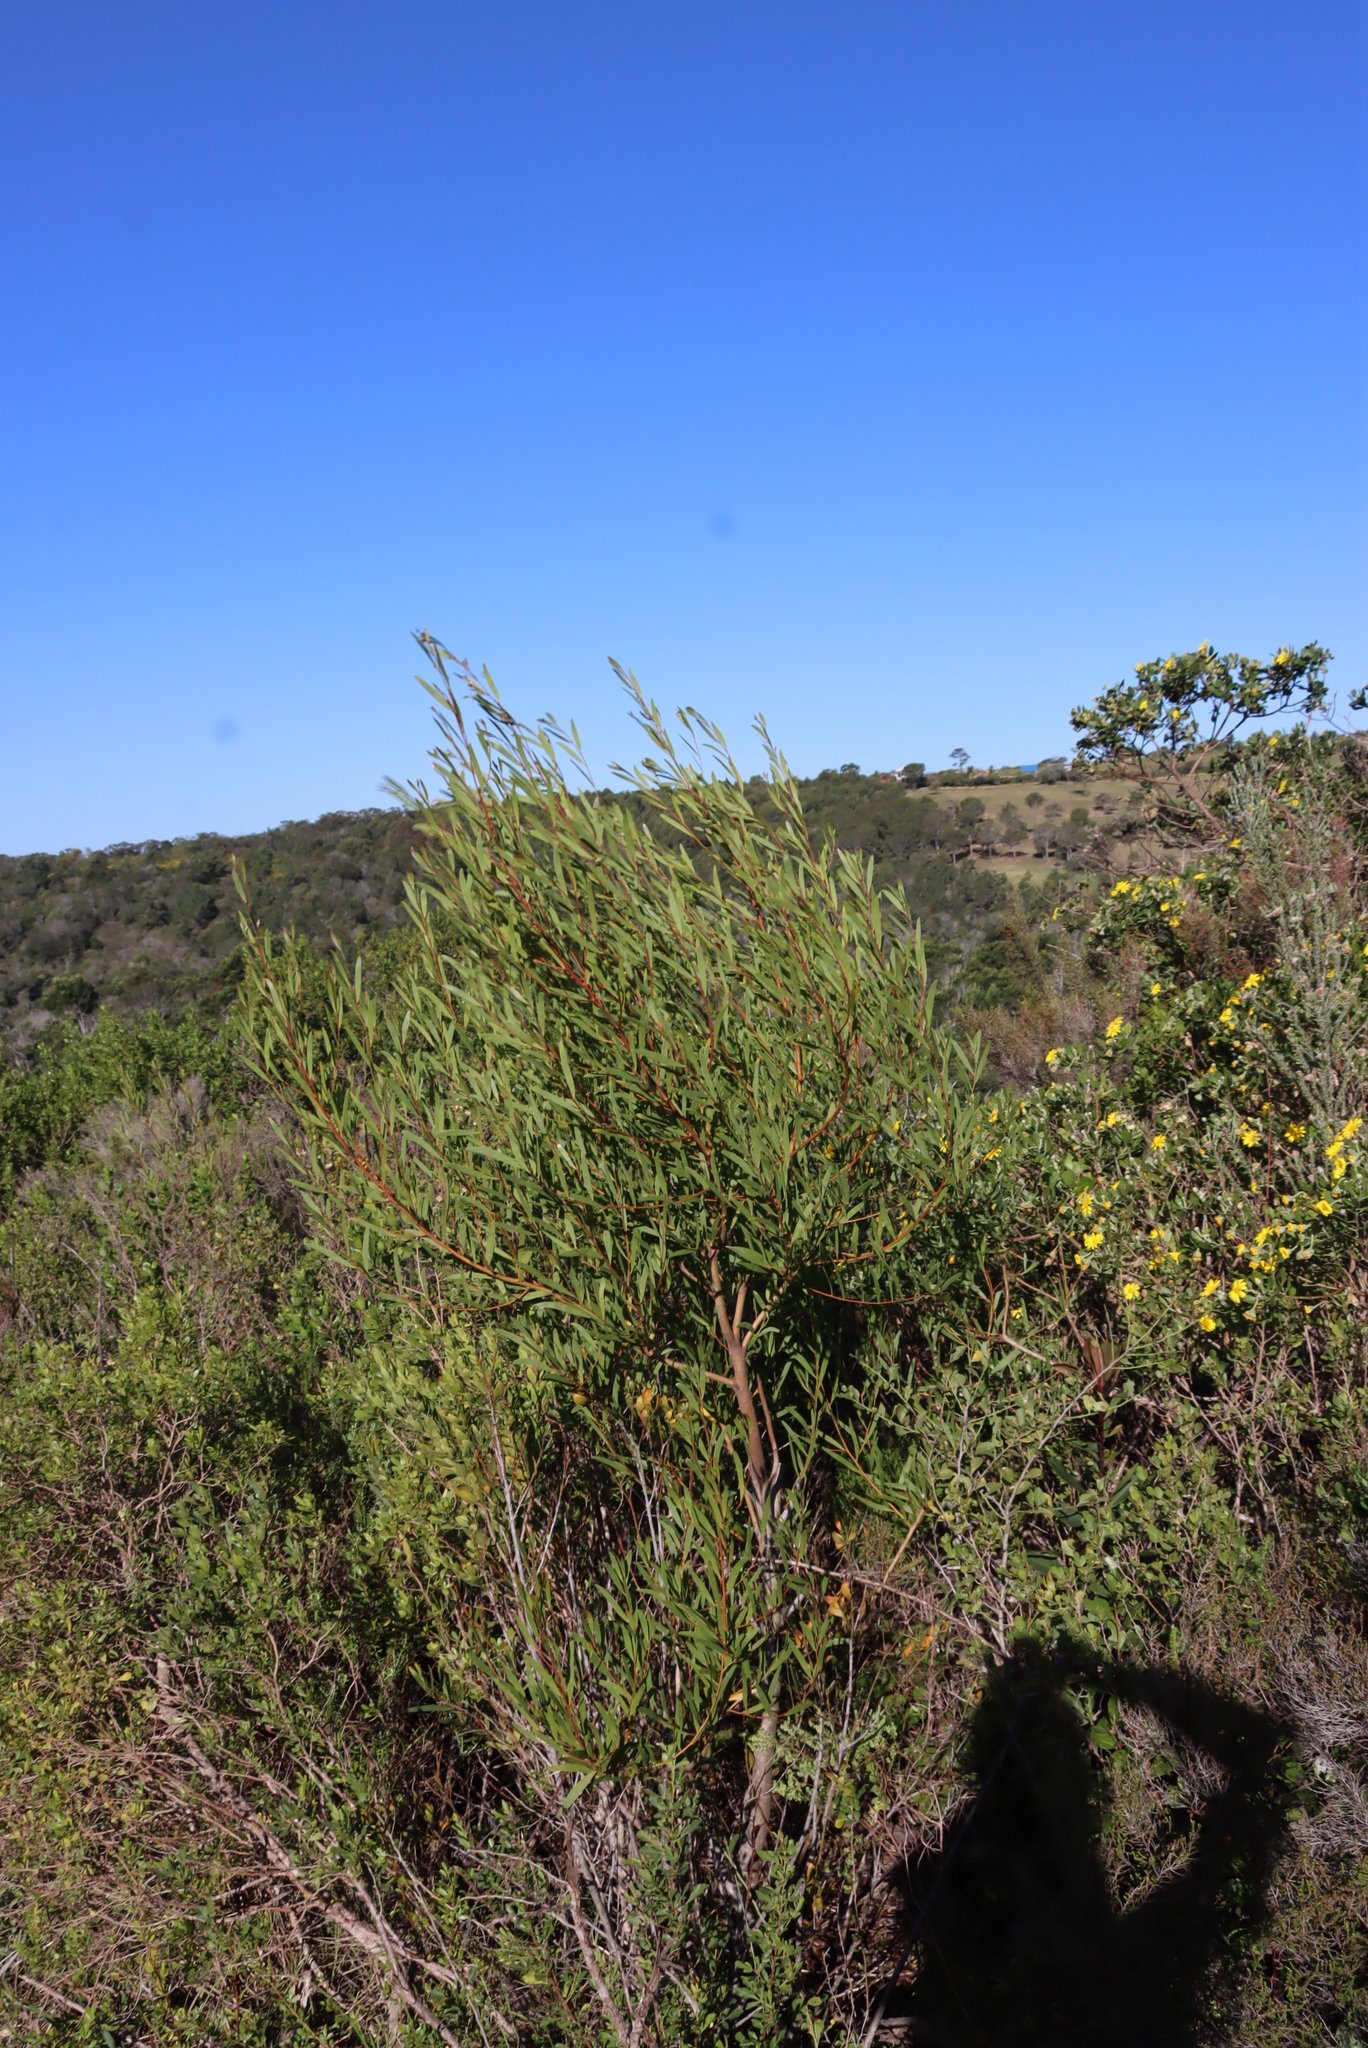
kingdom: Plantae
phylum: Tracheophyta
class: Magnoliopsida
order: Fabales
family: Fabaceae
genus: Acacia
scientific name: Acacia cyclops
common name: Coastal wattle
